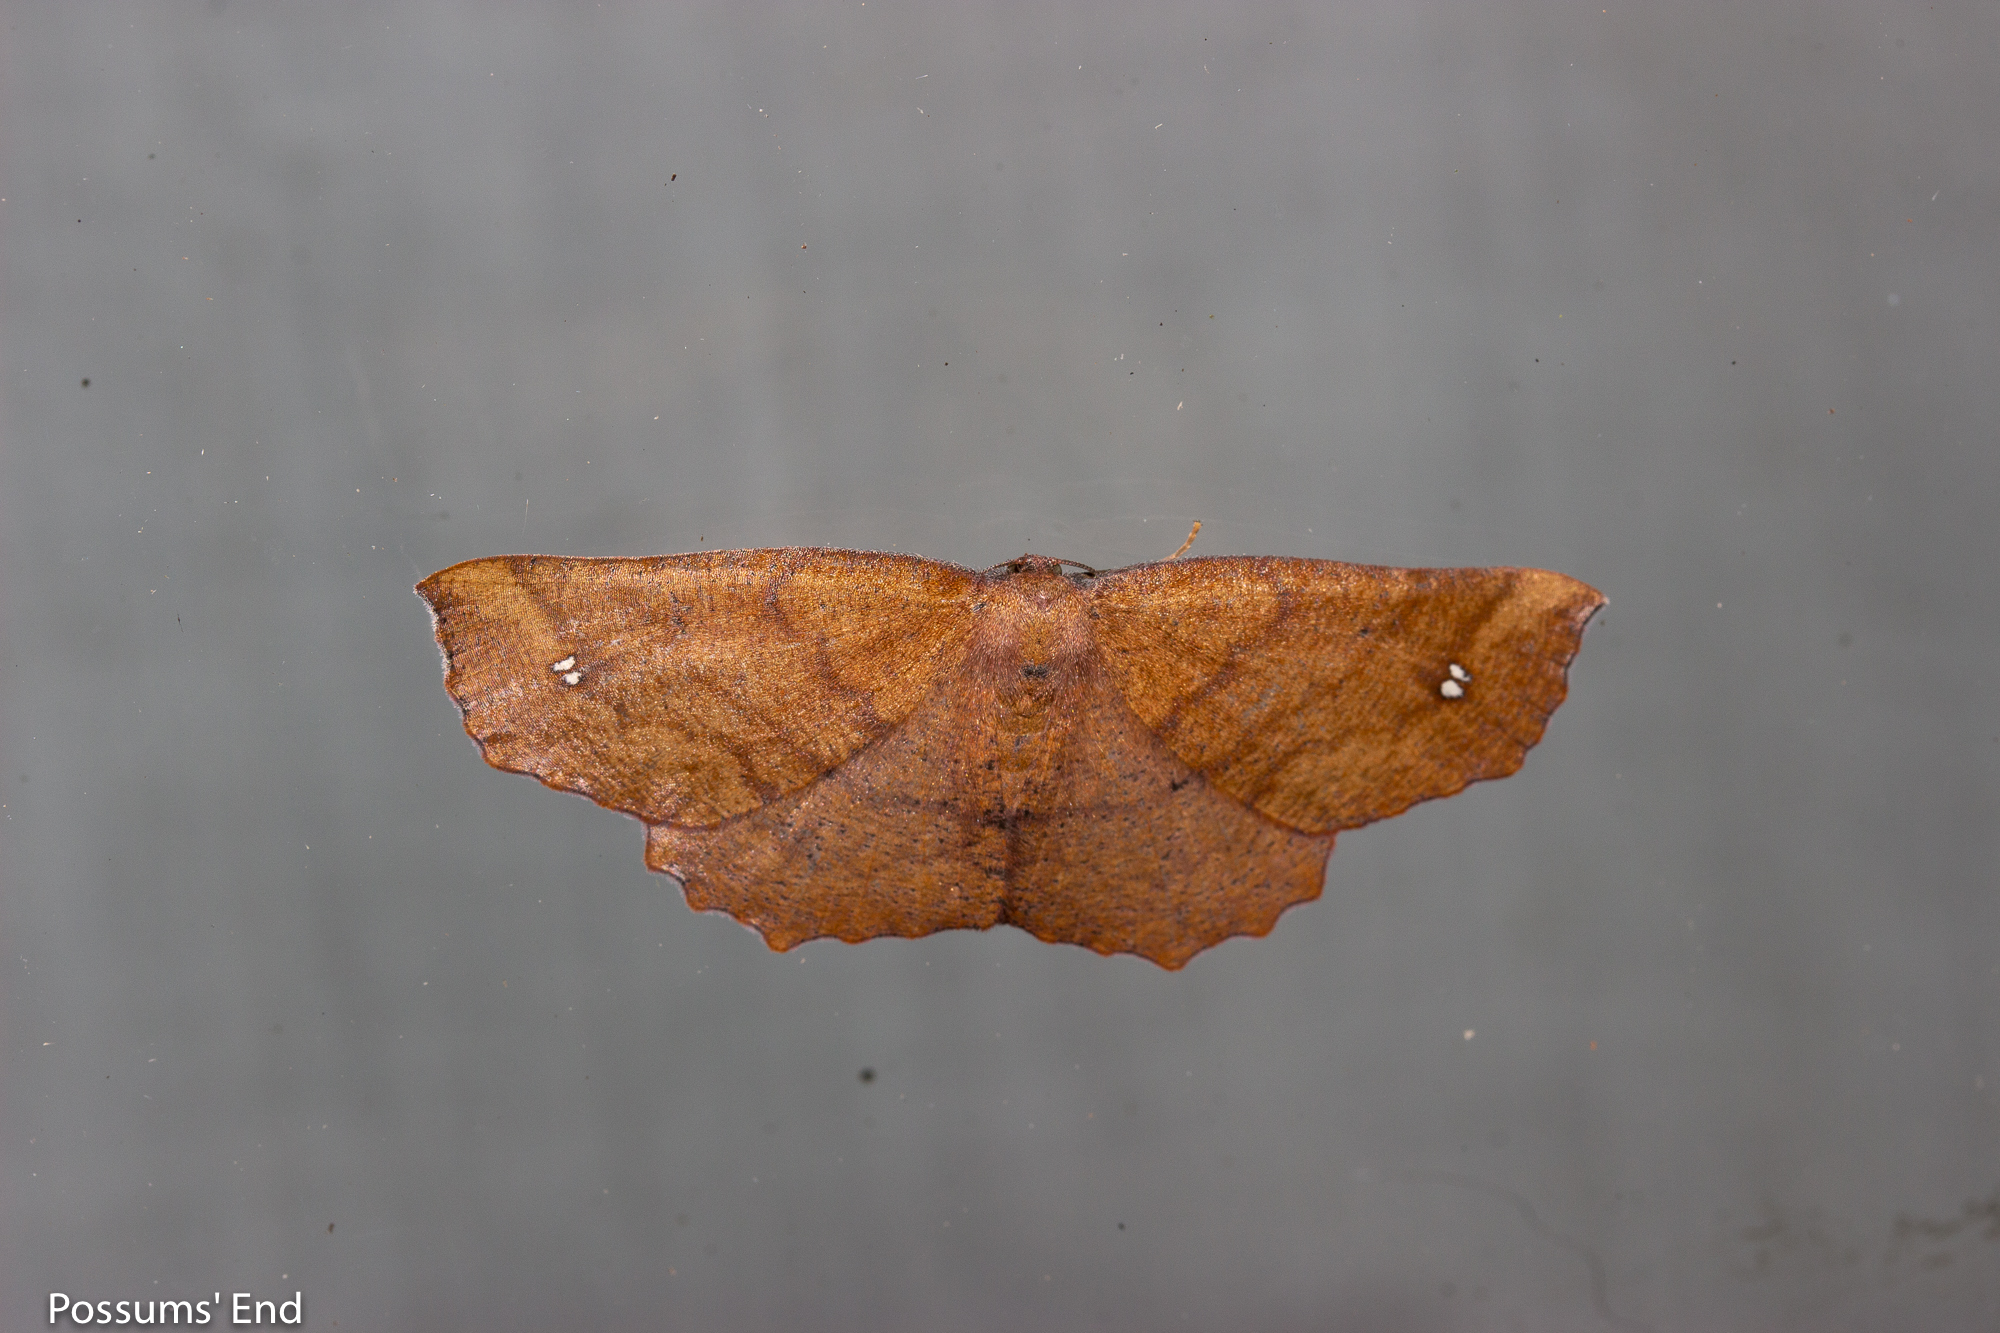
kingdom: Animalia
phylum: Arthropoda
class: Insecta
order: Lepidoptera
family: Geometridae
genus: Xyridacma
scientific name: Xyridacma ustaria
